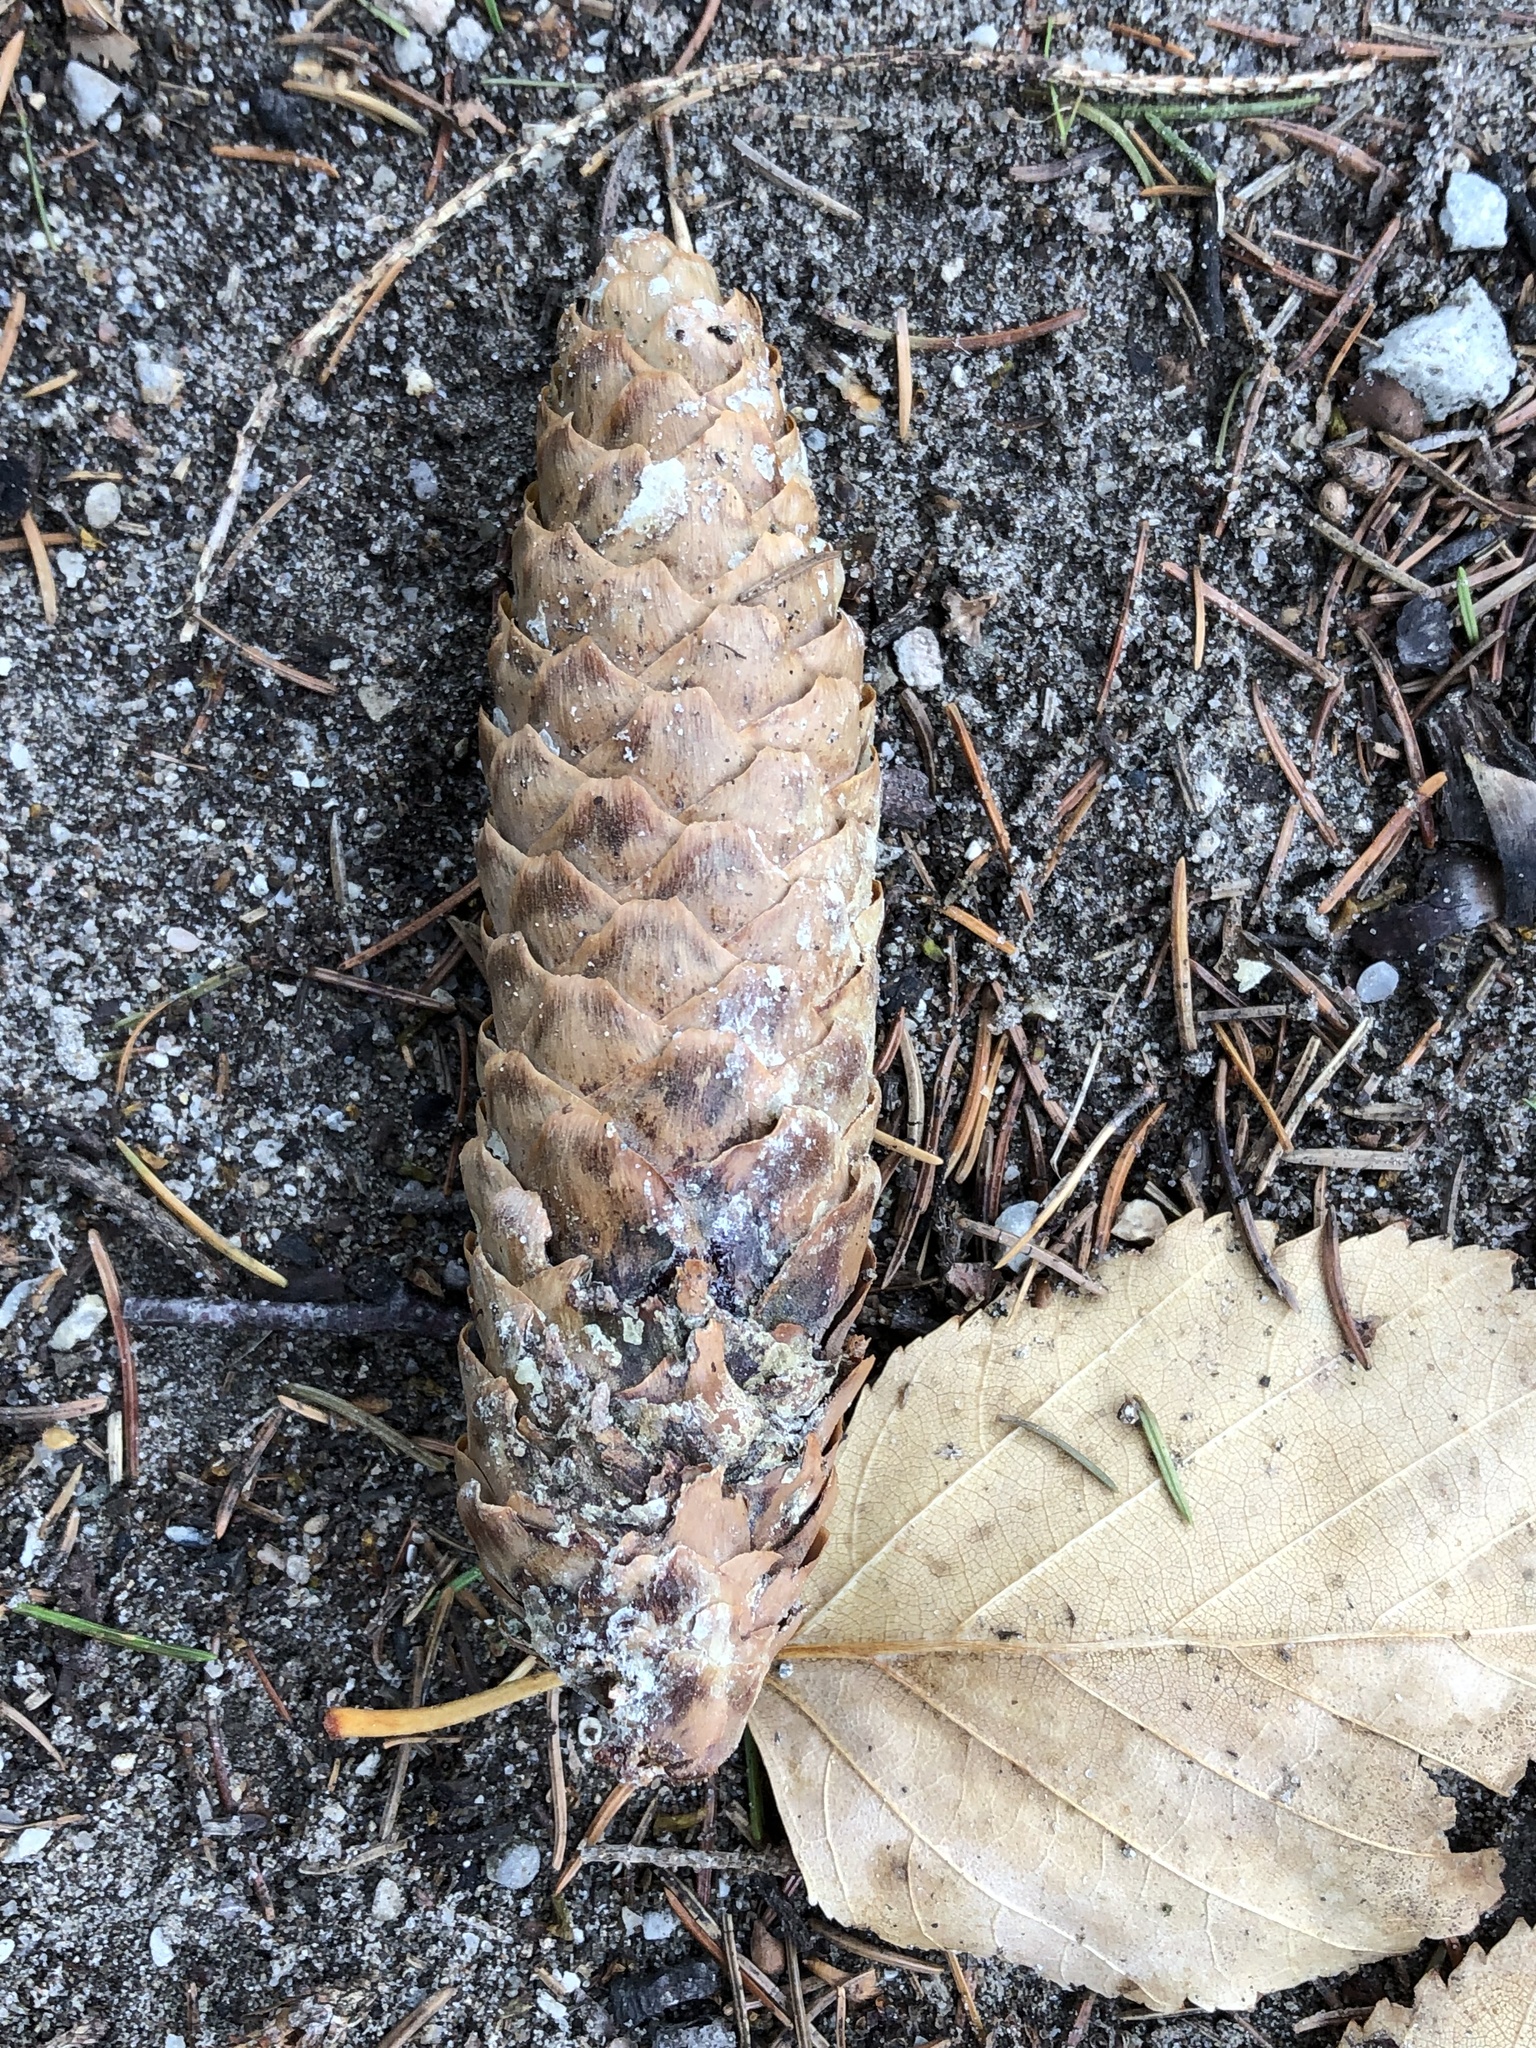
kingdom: Plantae
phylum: Tracheophyta
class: Pinopsida
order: Pinales
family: Pinaceae
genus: Picea
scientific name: Picea abies
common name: Norway spruce
